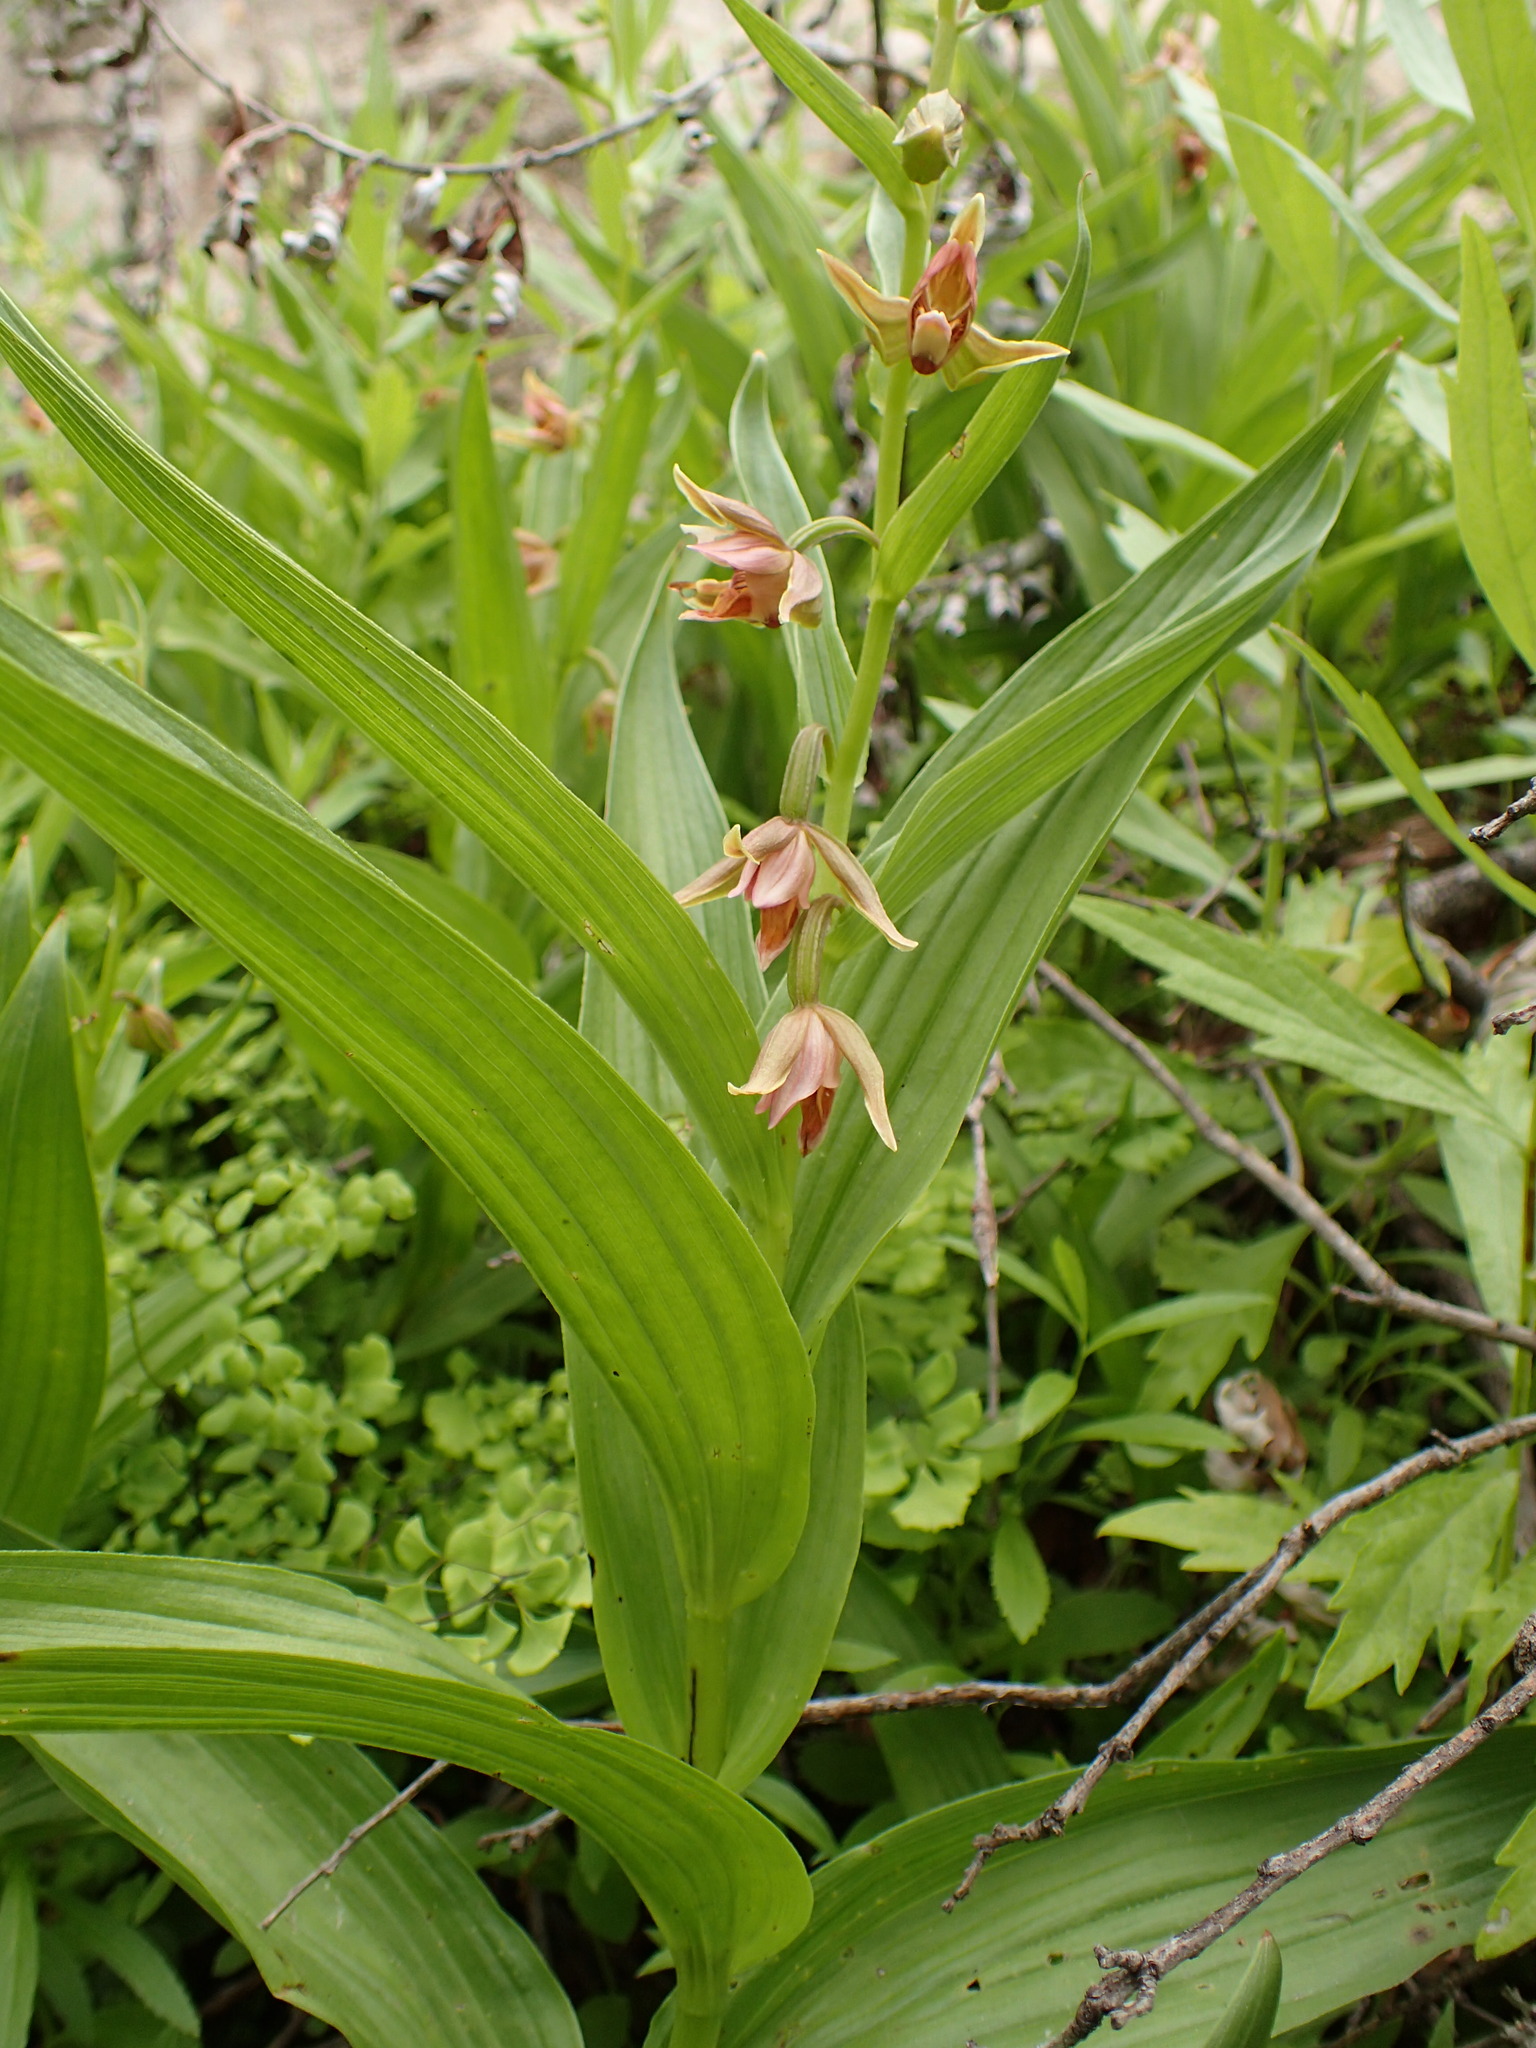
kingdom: Plantae
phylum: Tracheophyta
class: Liliopsida
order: Asparagales
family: Orchidaceae
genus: Epipactis
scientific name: Epipactis gigantea
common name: Chatterbox
